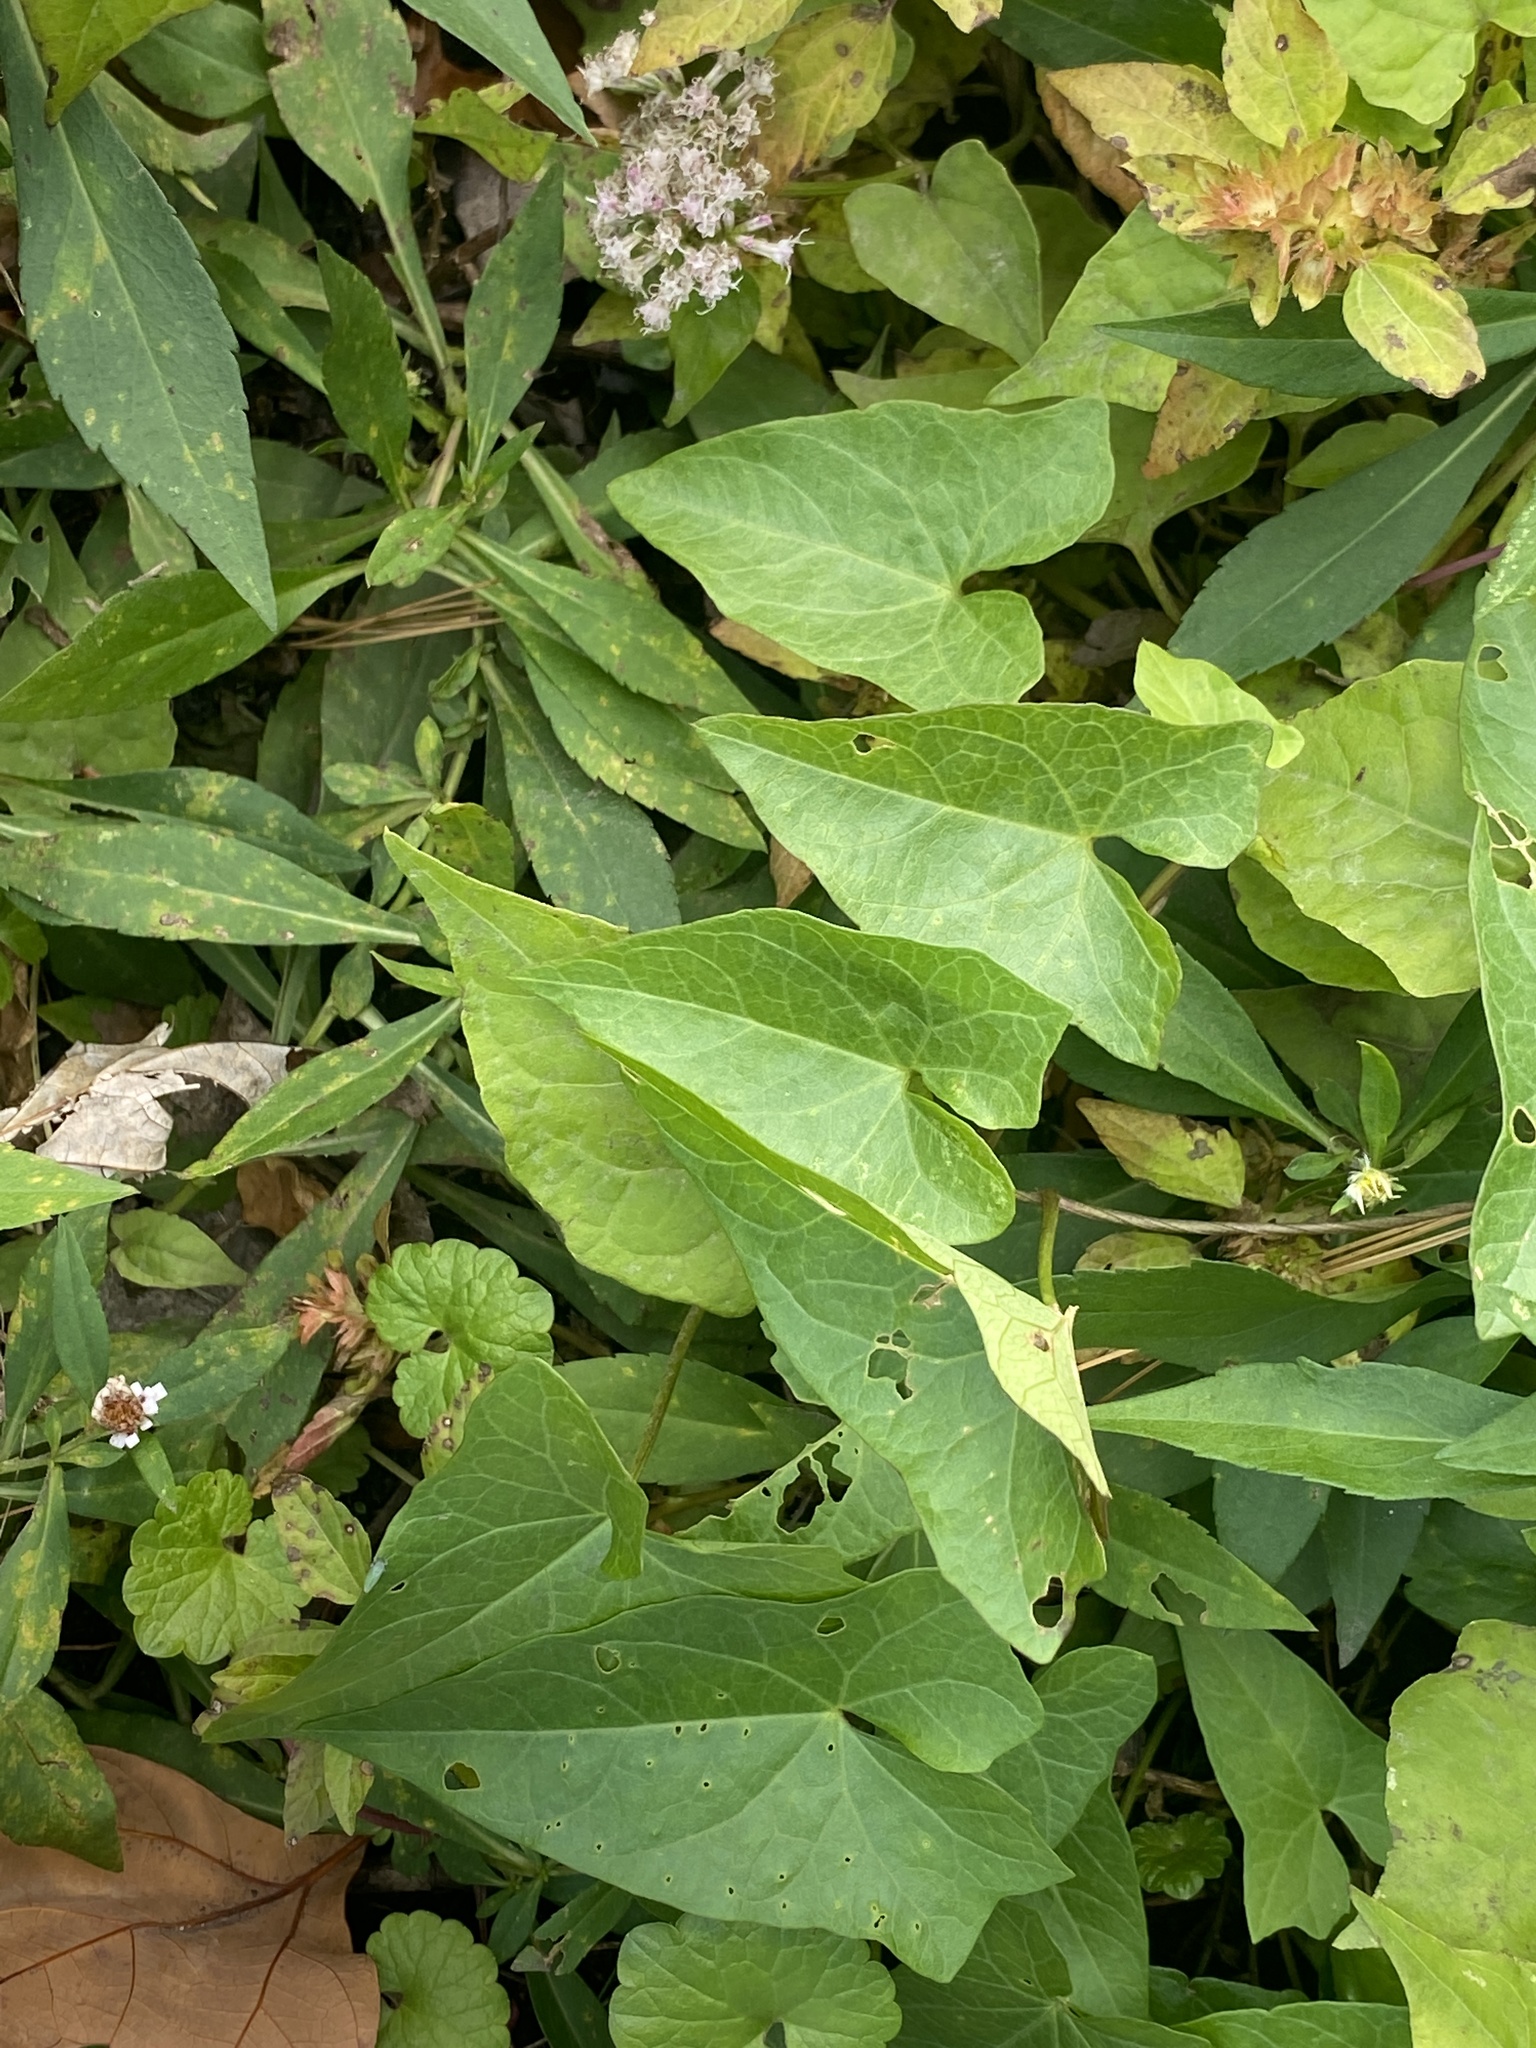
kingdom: Plantae
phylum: Tracheophyta
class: Magnoliopsida
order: Solanales
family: Convolvulaceae
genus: Calystegia
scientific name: Calystegia sepium
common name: Hedge bindweed
